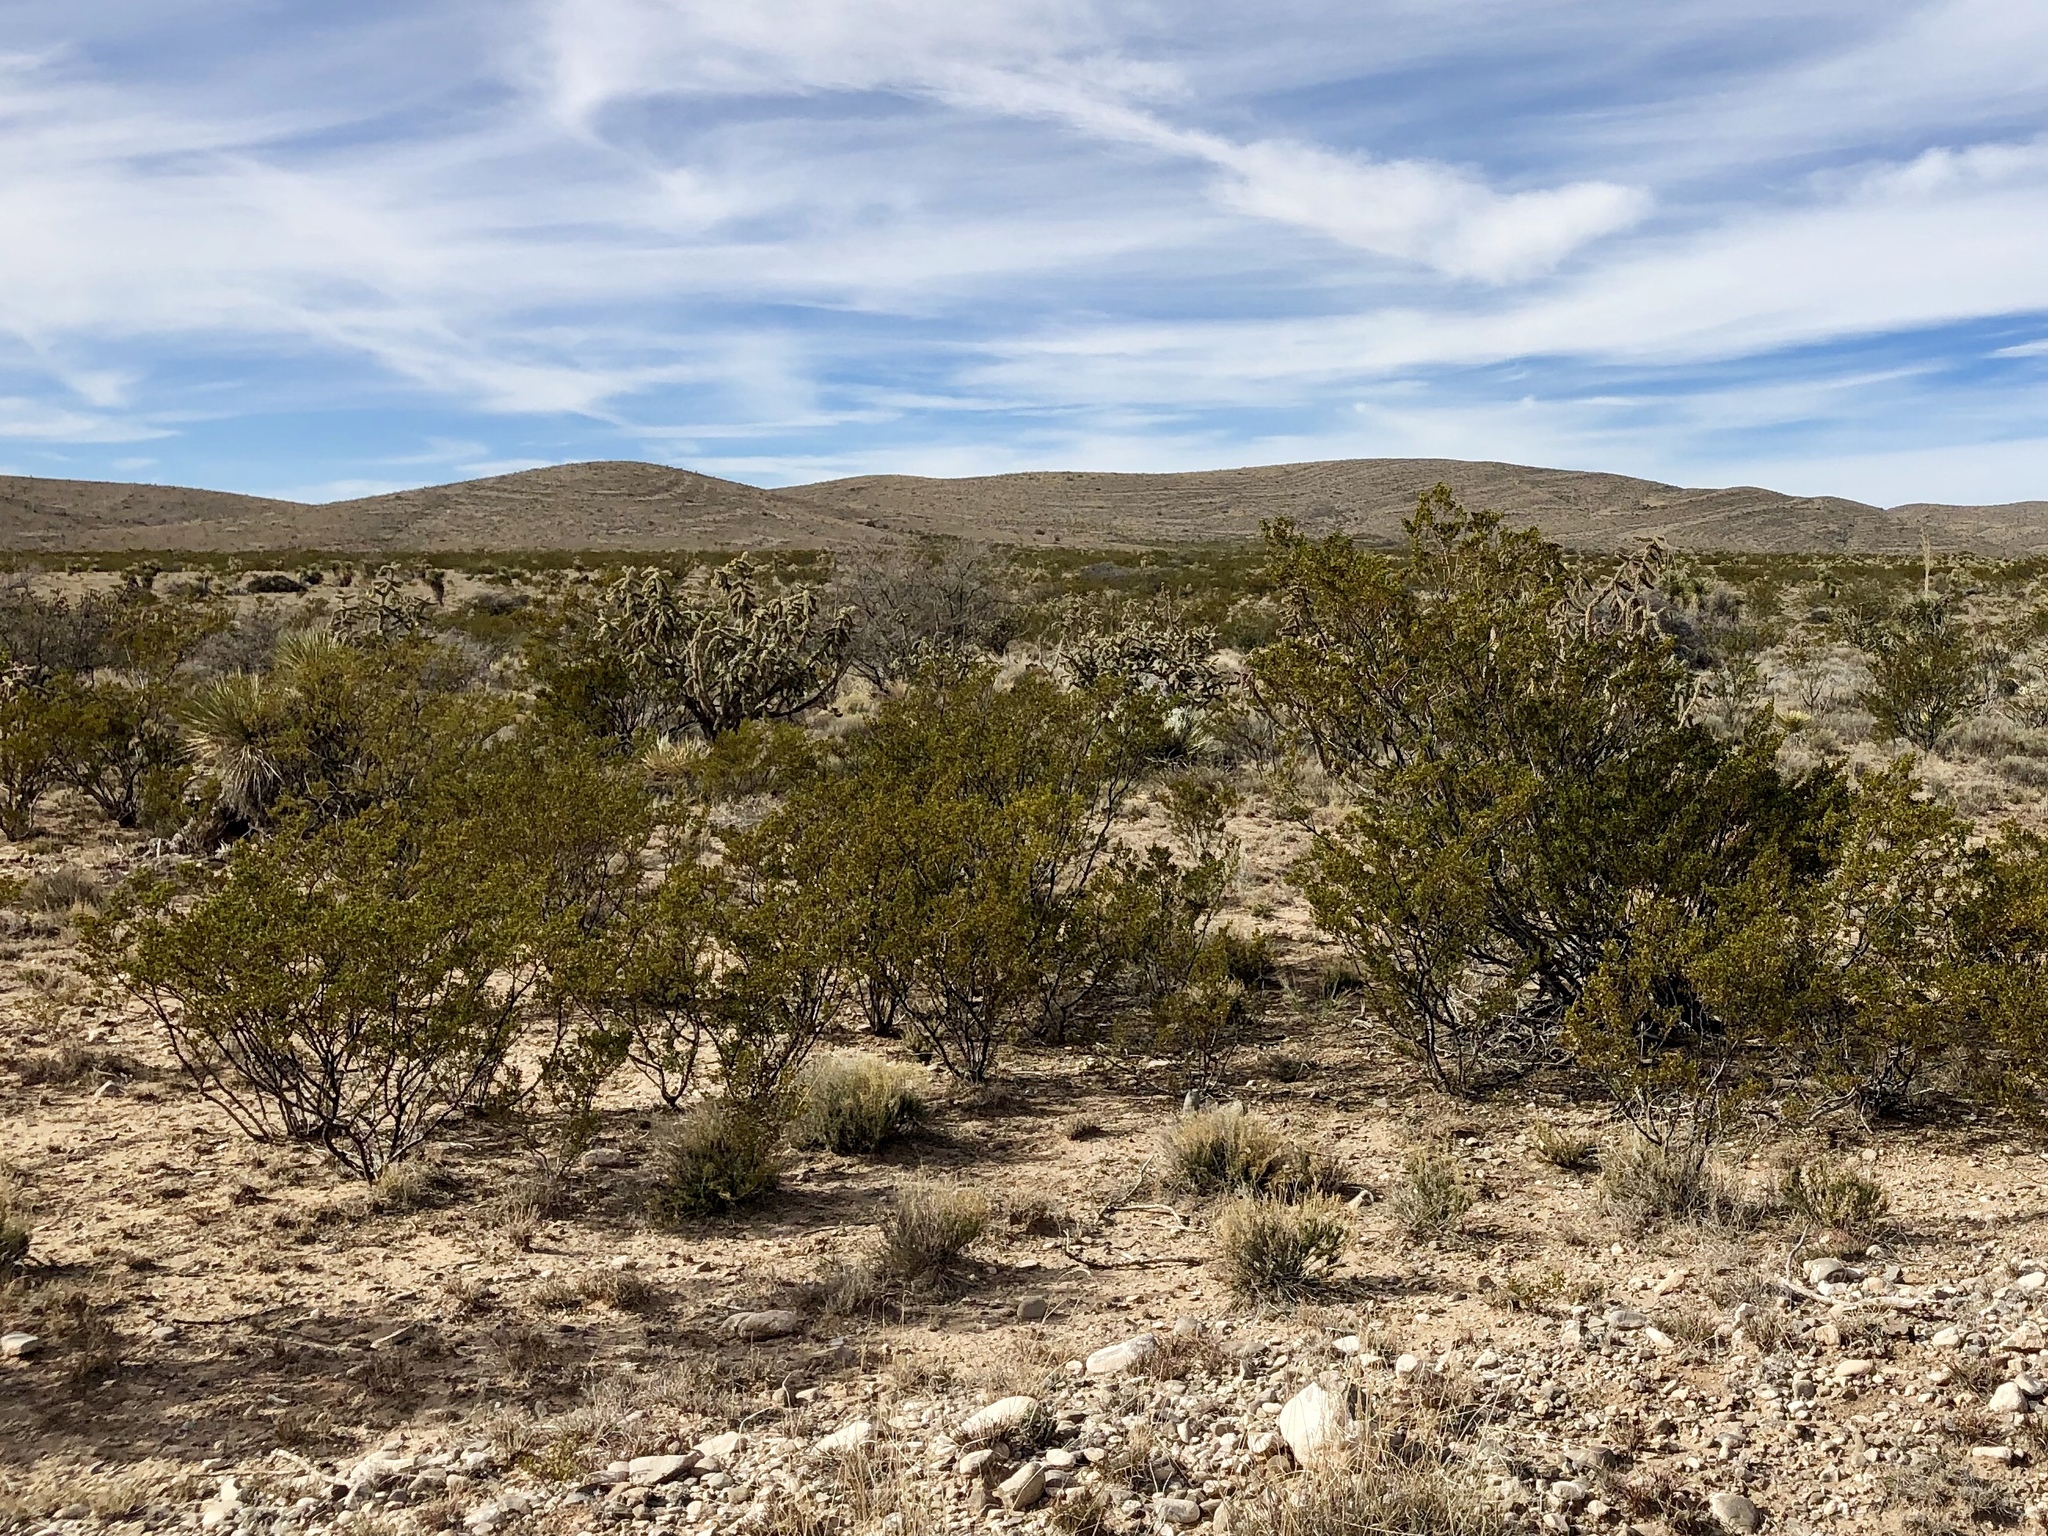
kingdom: Plantae
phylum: Tracheophyta
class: Magnoliopsida
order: Zygophyllales
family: Zygophyllaceae
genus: Larrea
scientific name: Larrea tridentata
